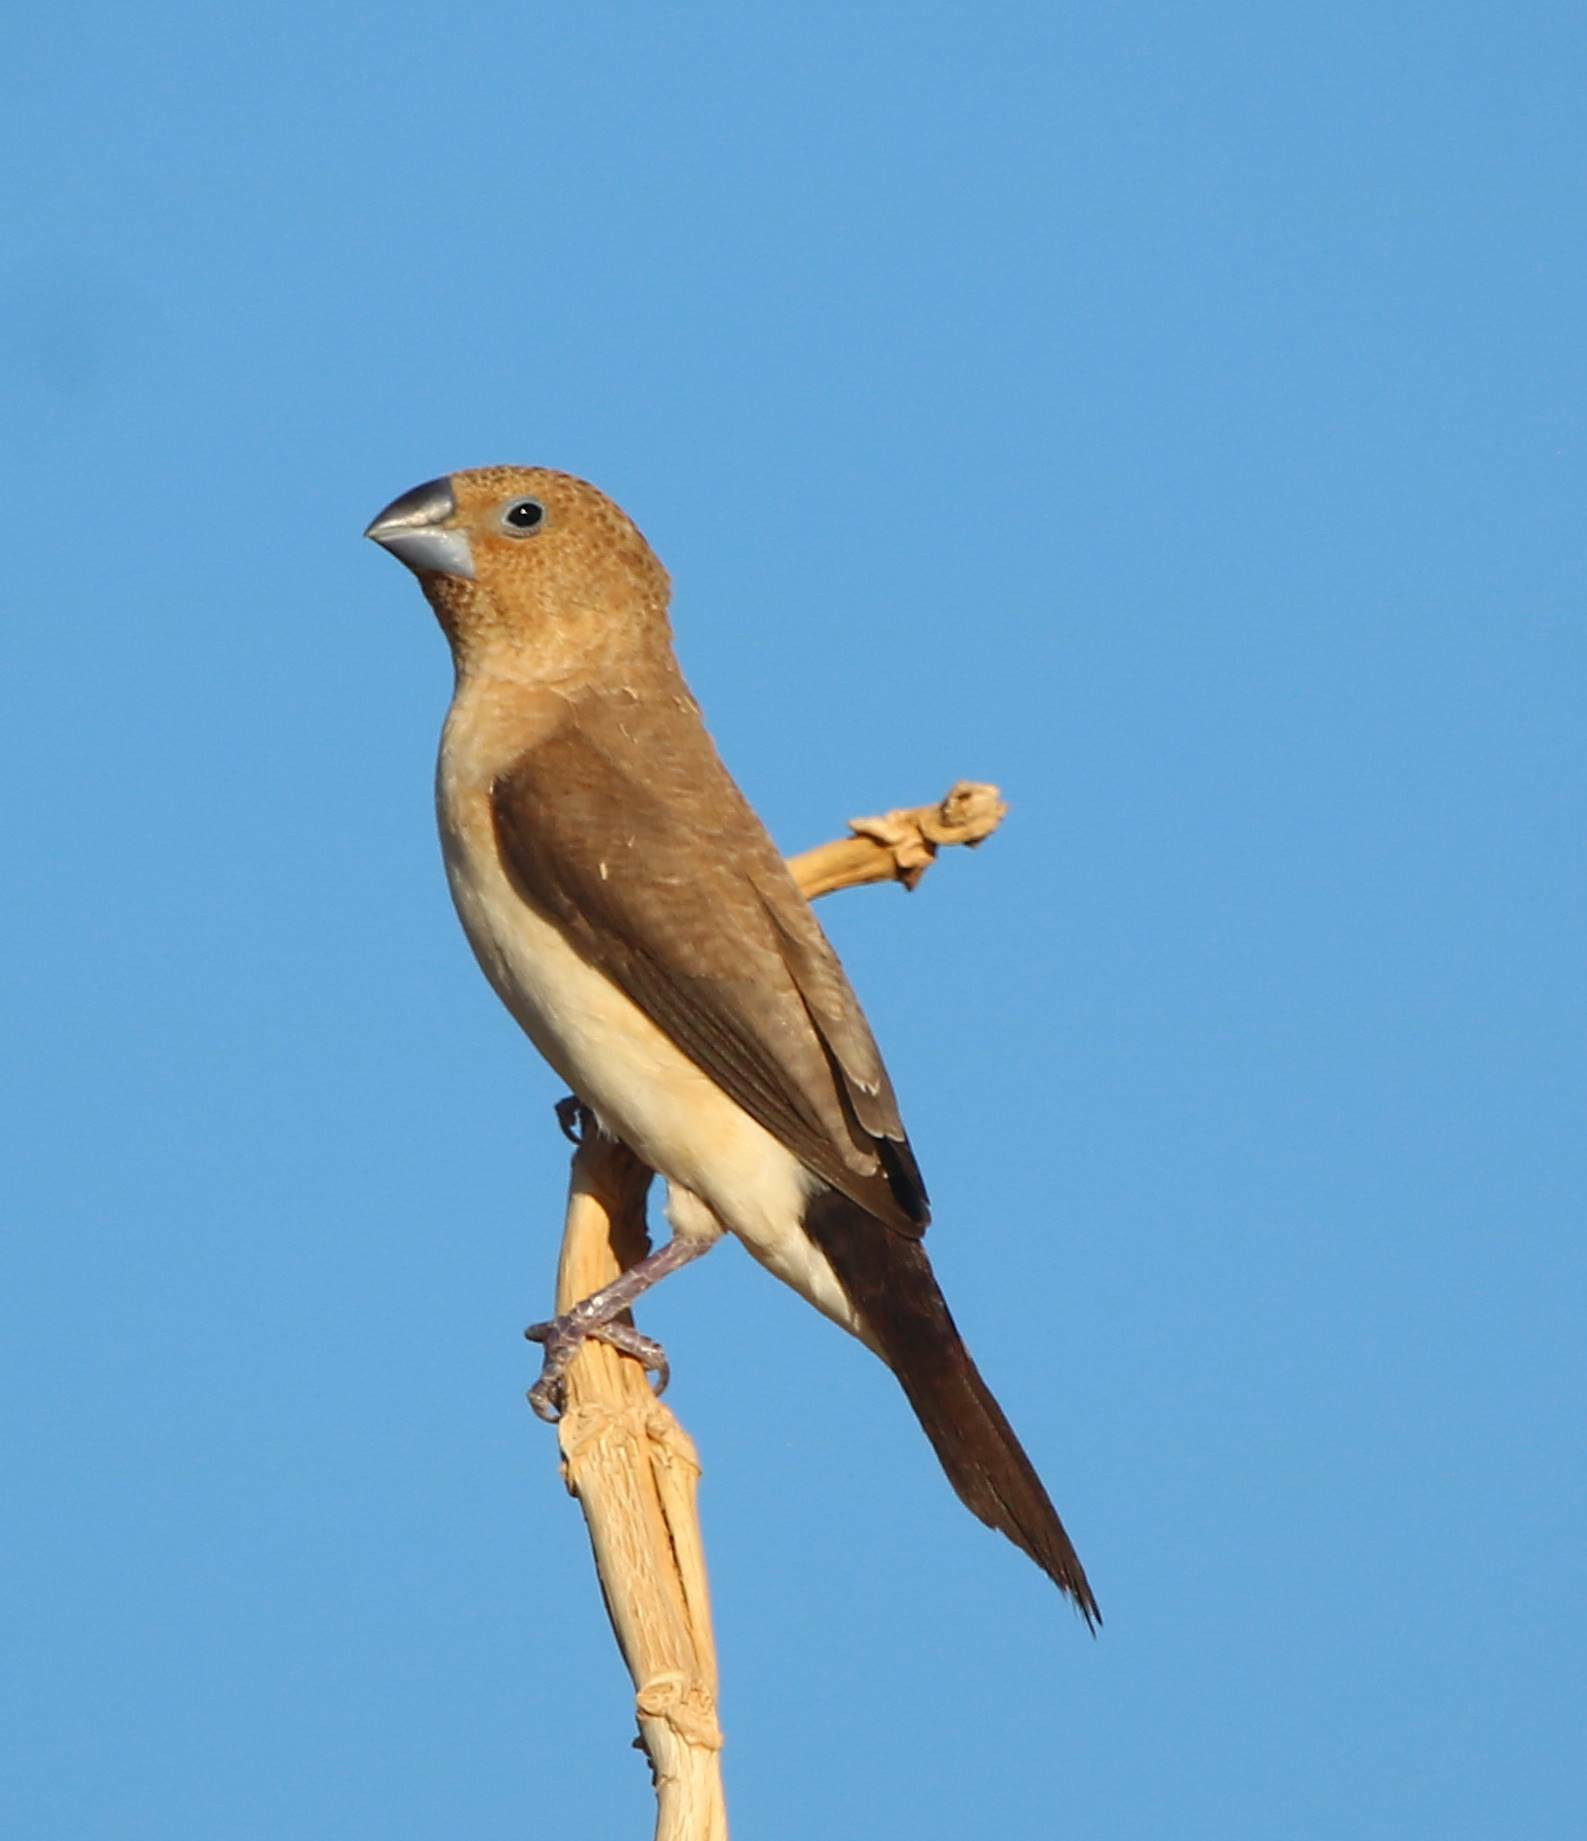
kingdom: Animalia
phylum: Chordata
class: Aves
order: Passeriformes
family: Estrildidae
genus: Euodice
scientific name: Euodice cantans
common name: African silverbill
